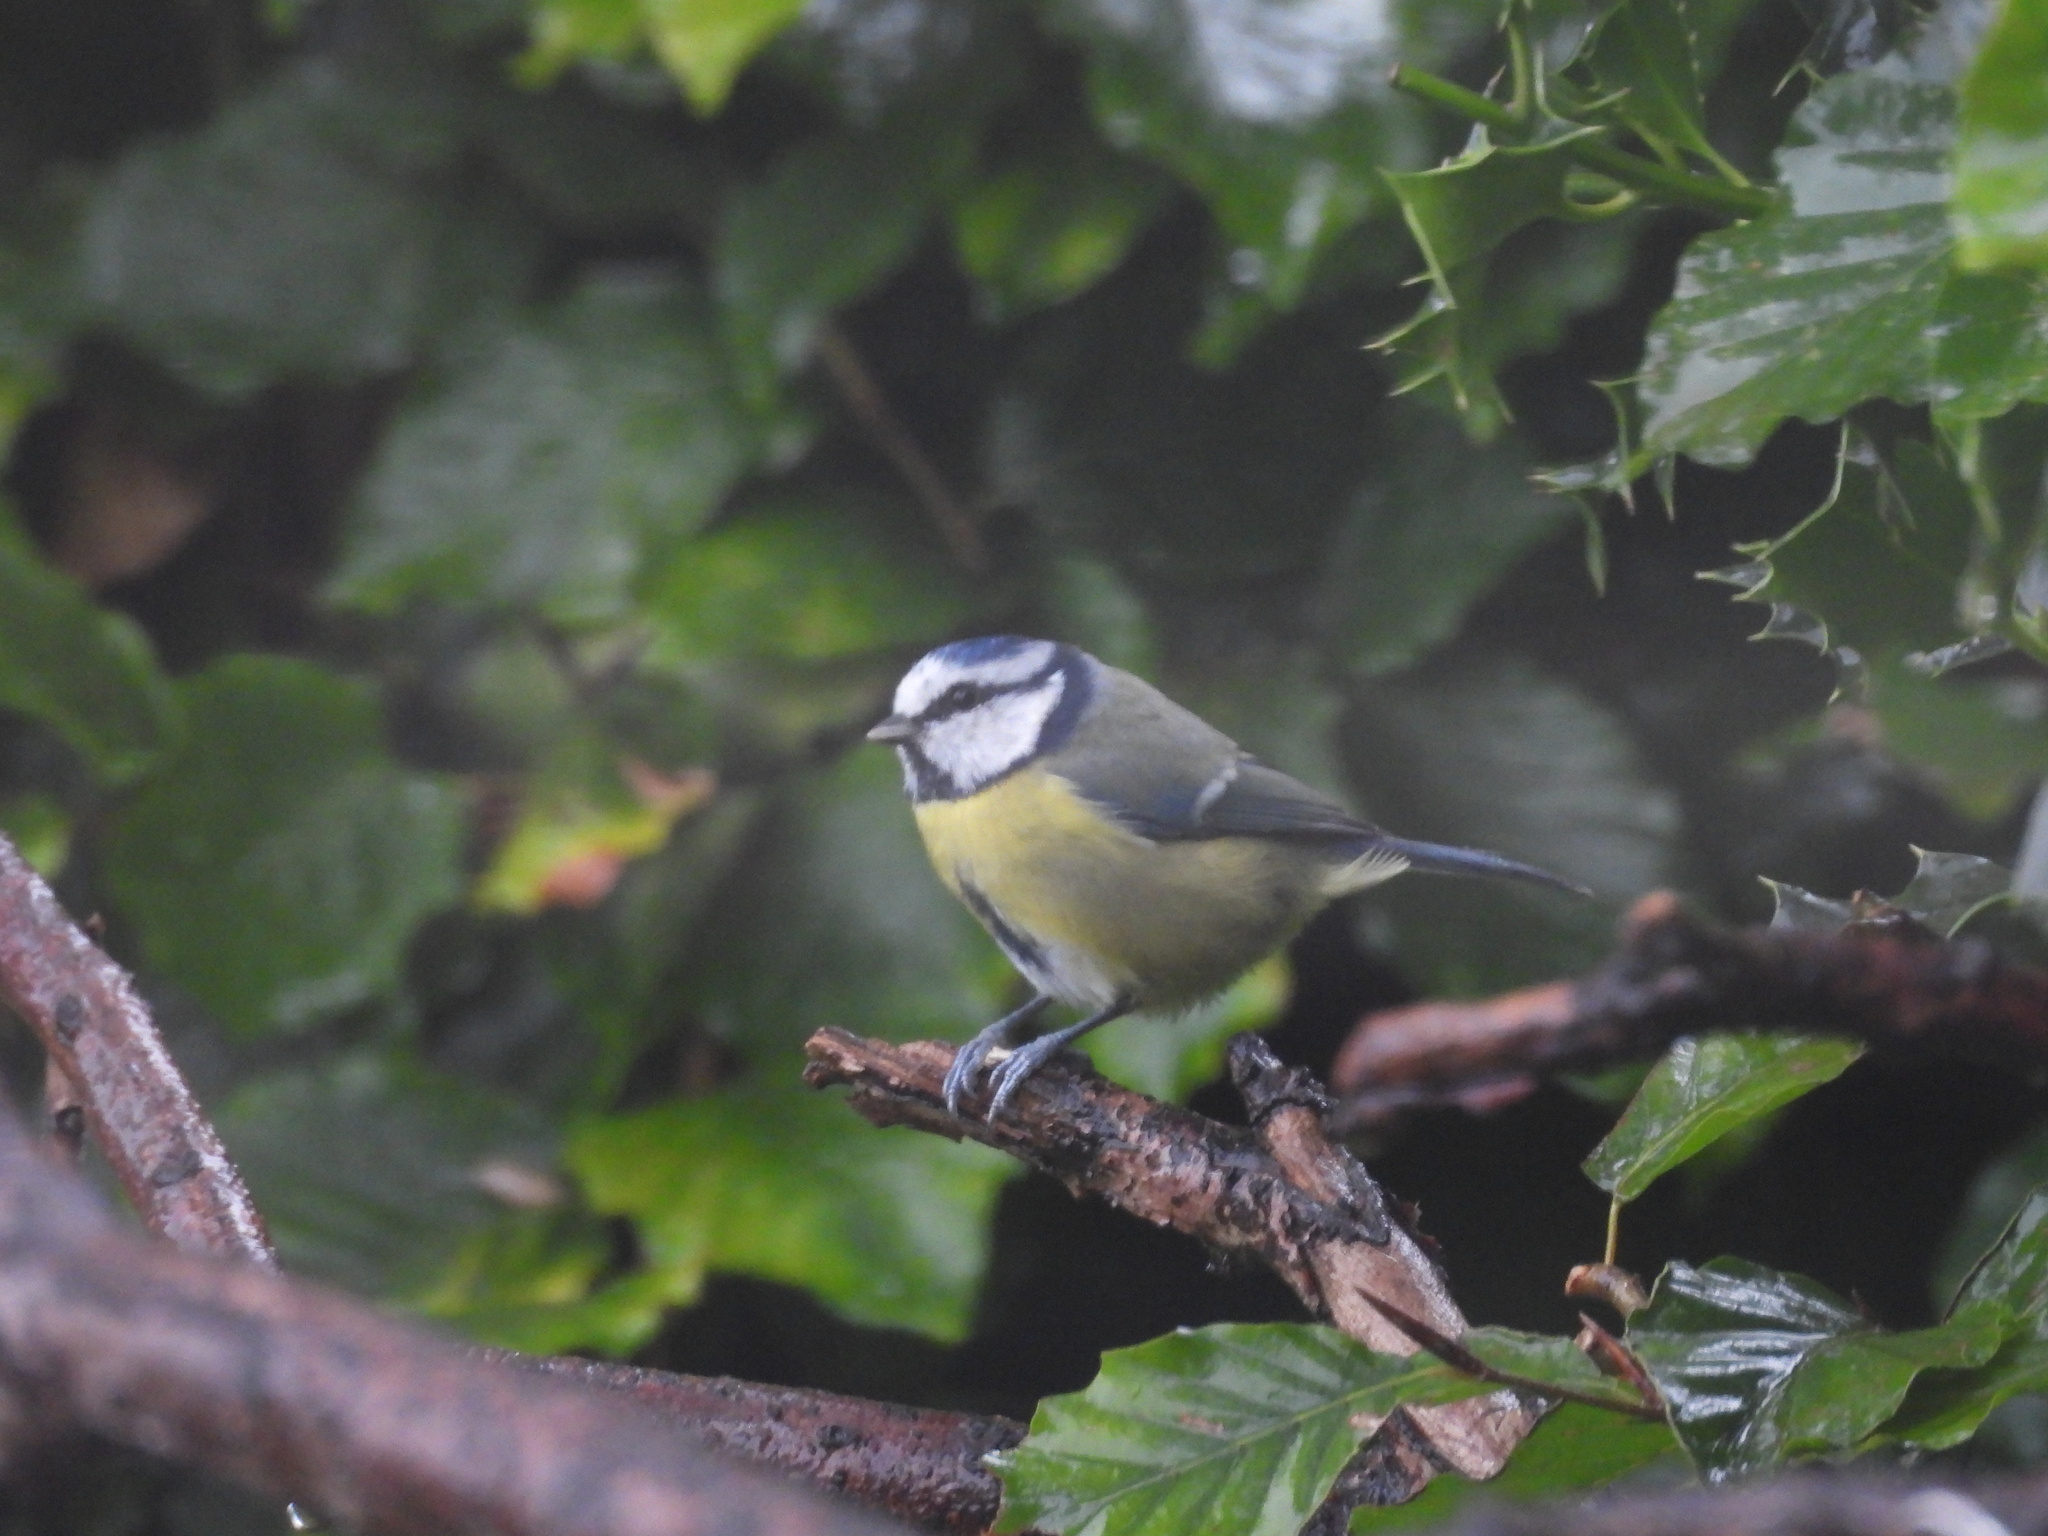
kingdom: Animalia
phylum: Chordata
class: Aves
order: Passeriformes
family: Paridae
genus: Cyanistes
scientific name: Cyanistes caeruleus
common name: Eurasian blue tit
